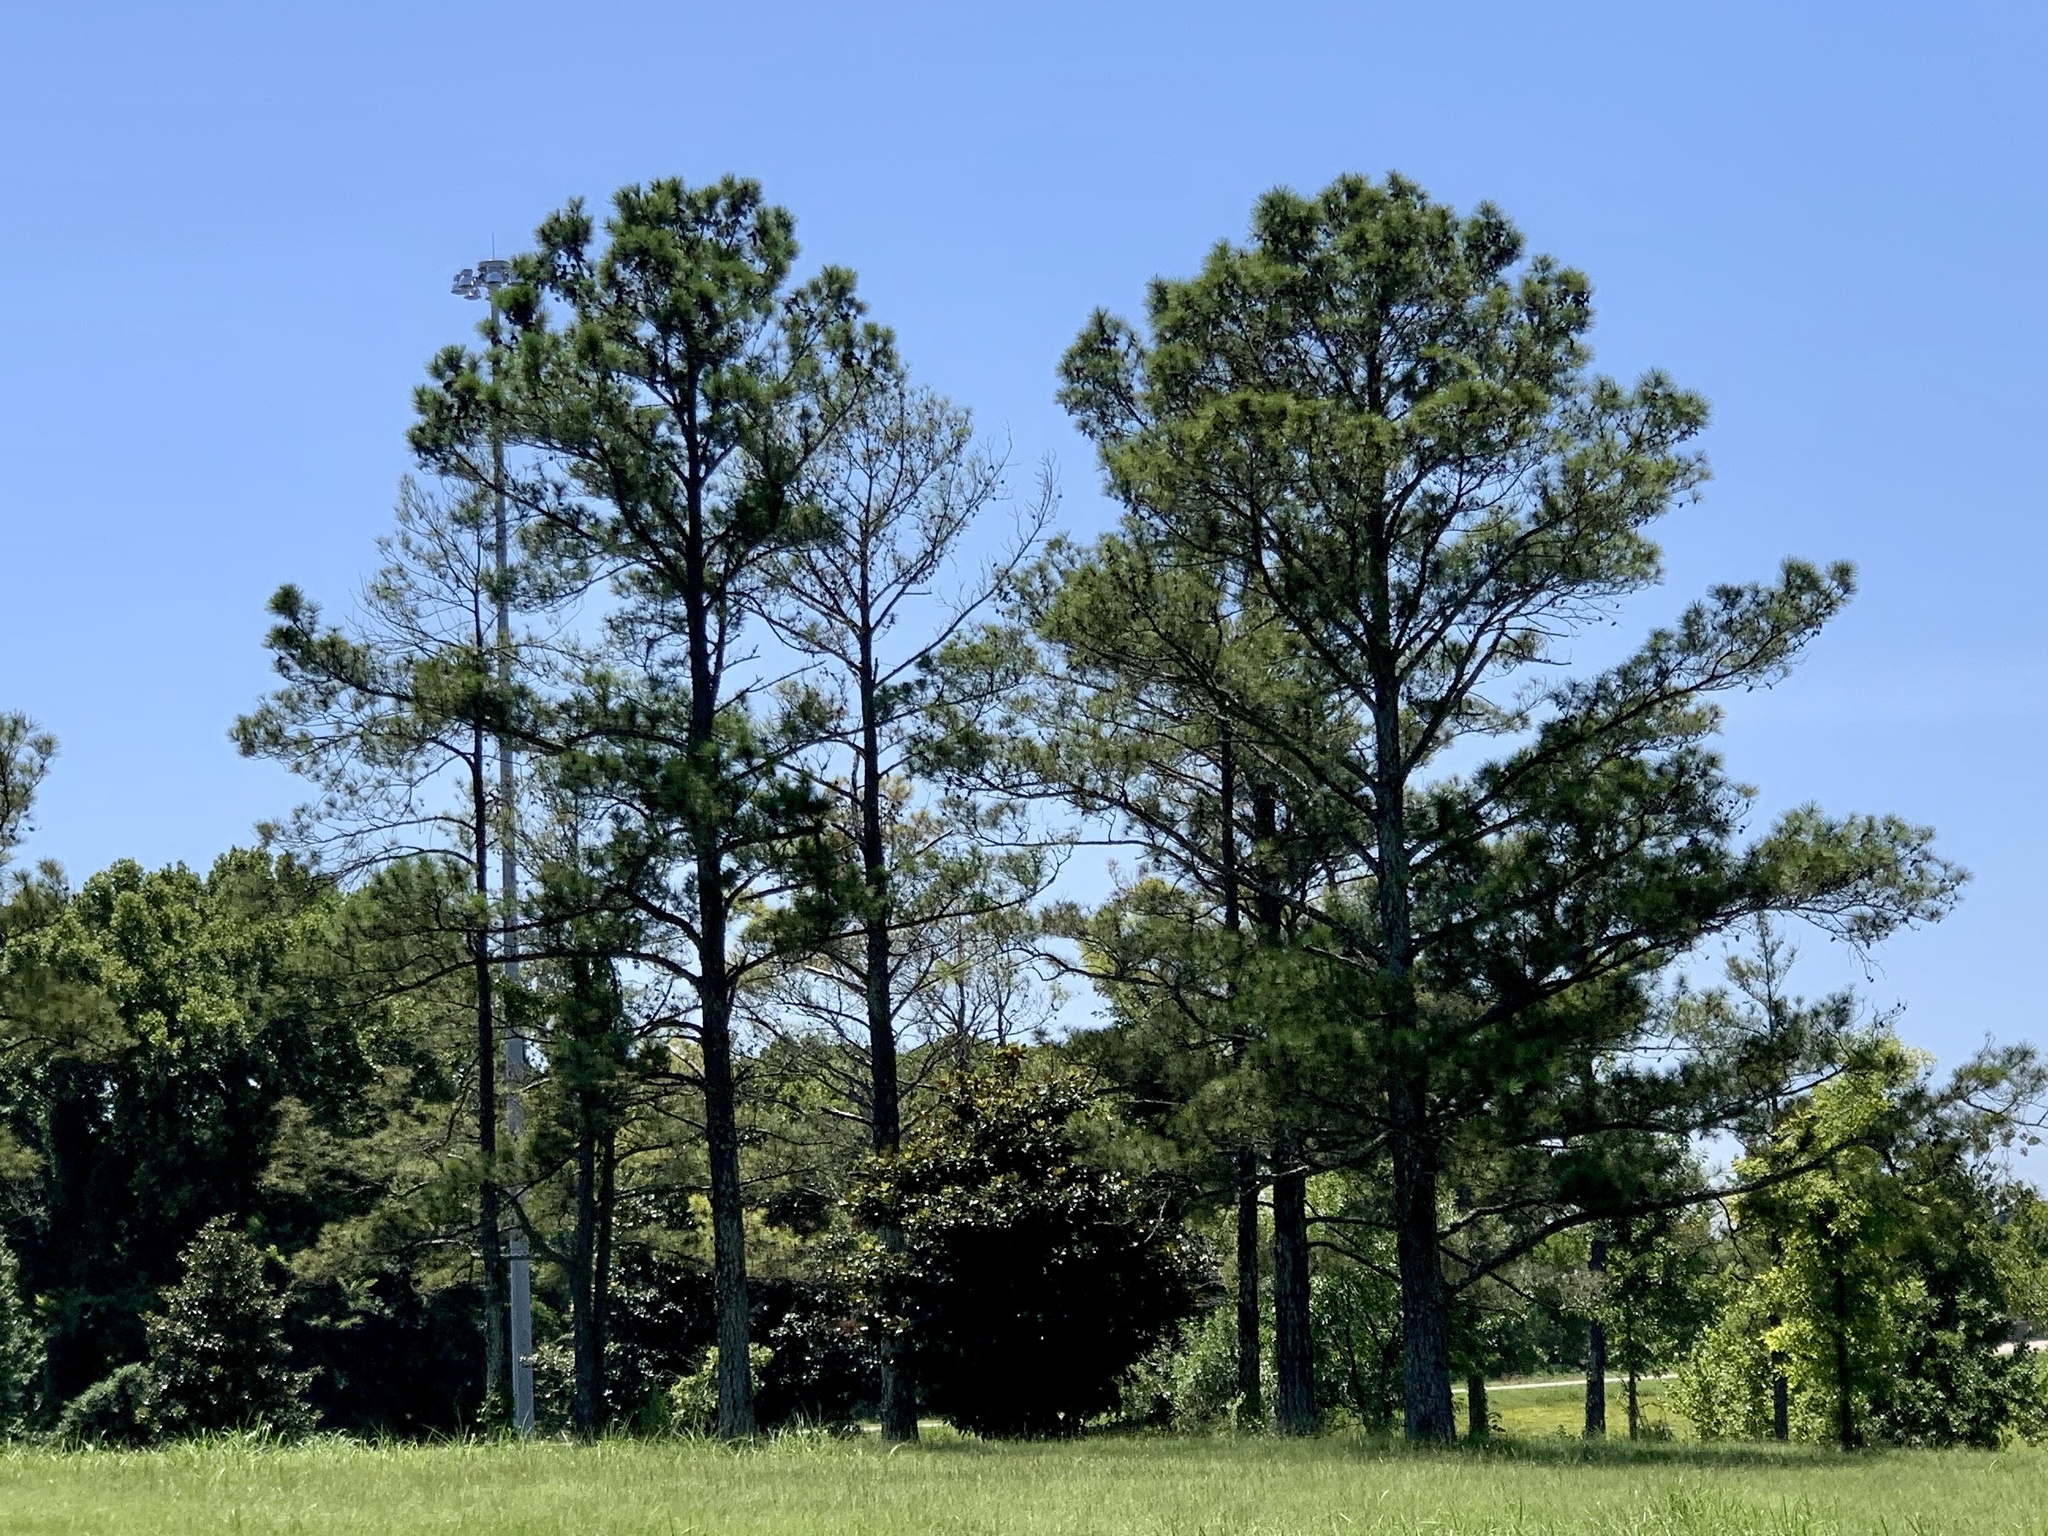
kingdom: Plantae
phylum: Tracheophyta
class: Pinopsida
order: Pinales
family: Pinaceae
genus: Pinus
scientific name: Pinus taeda
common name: Loblolly pine
